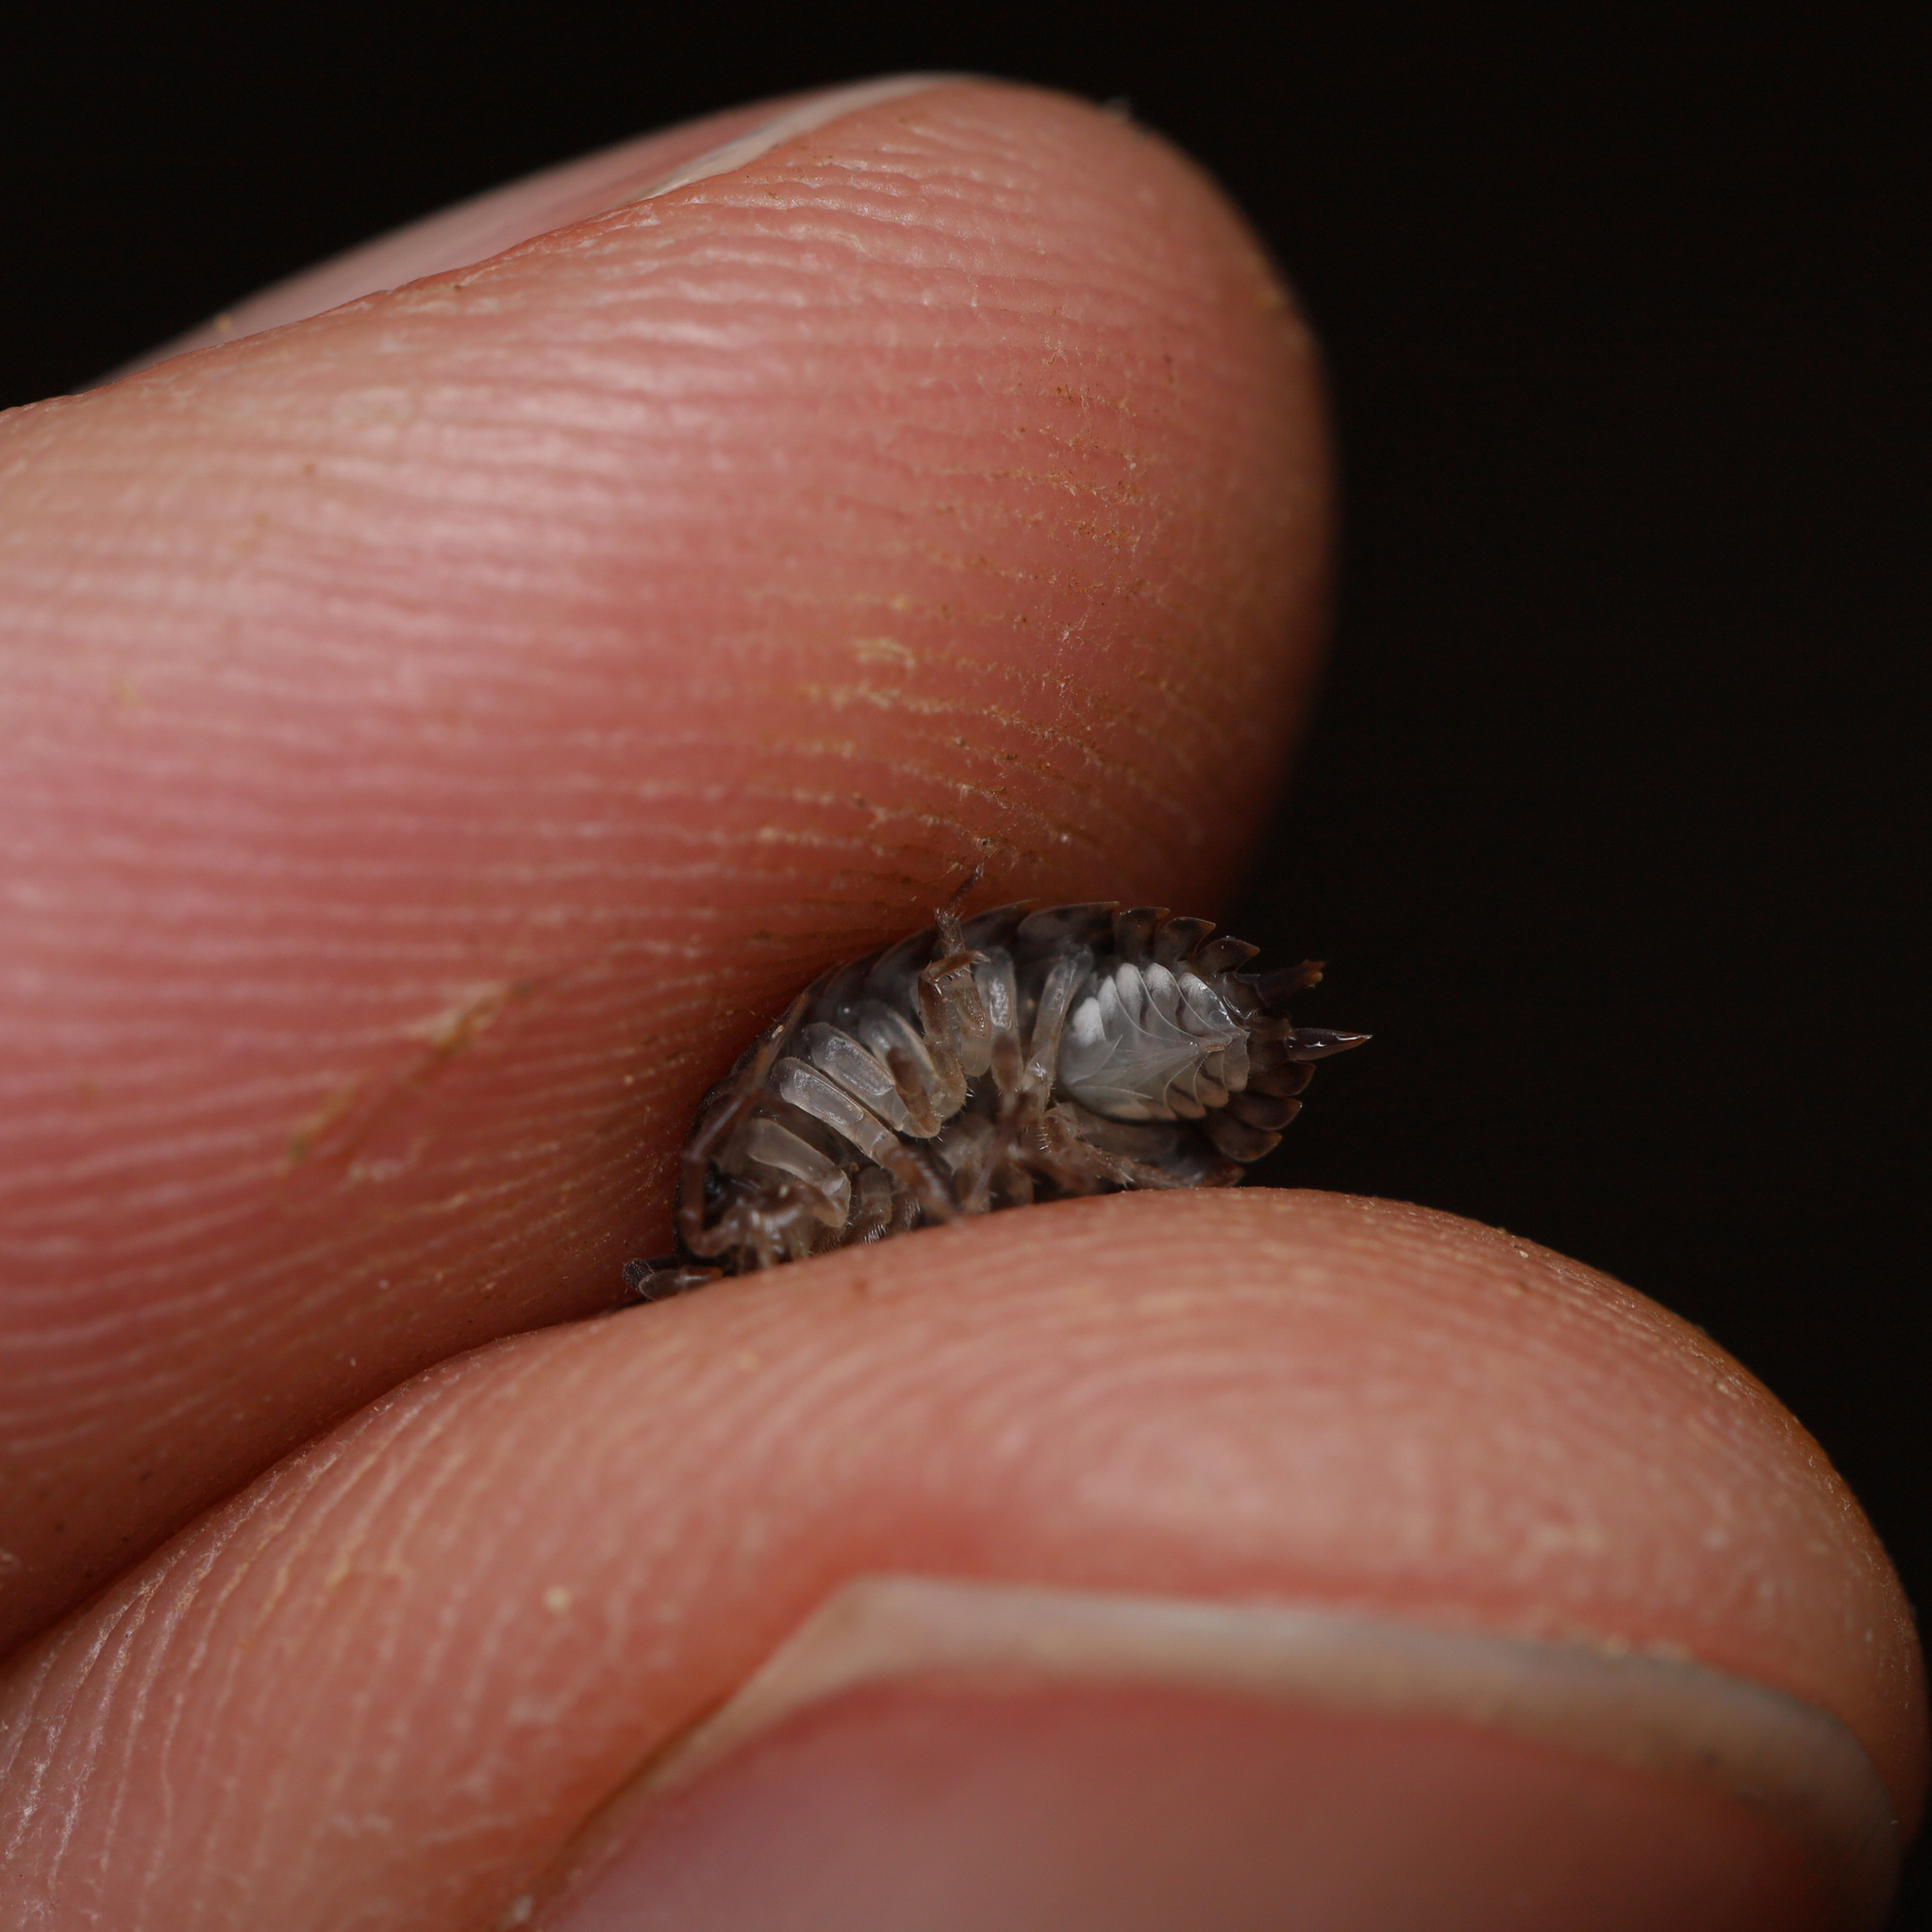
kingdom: Animalia
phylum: Arthropoda
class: Malacostraca
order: Isopoda
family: Trachelipodidae
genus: Trachelipus
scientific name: Trachelipus rathkii
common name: Isopod
